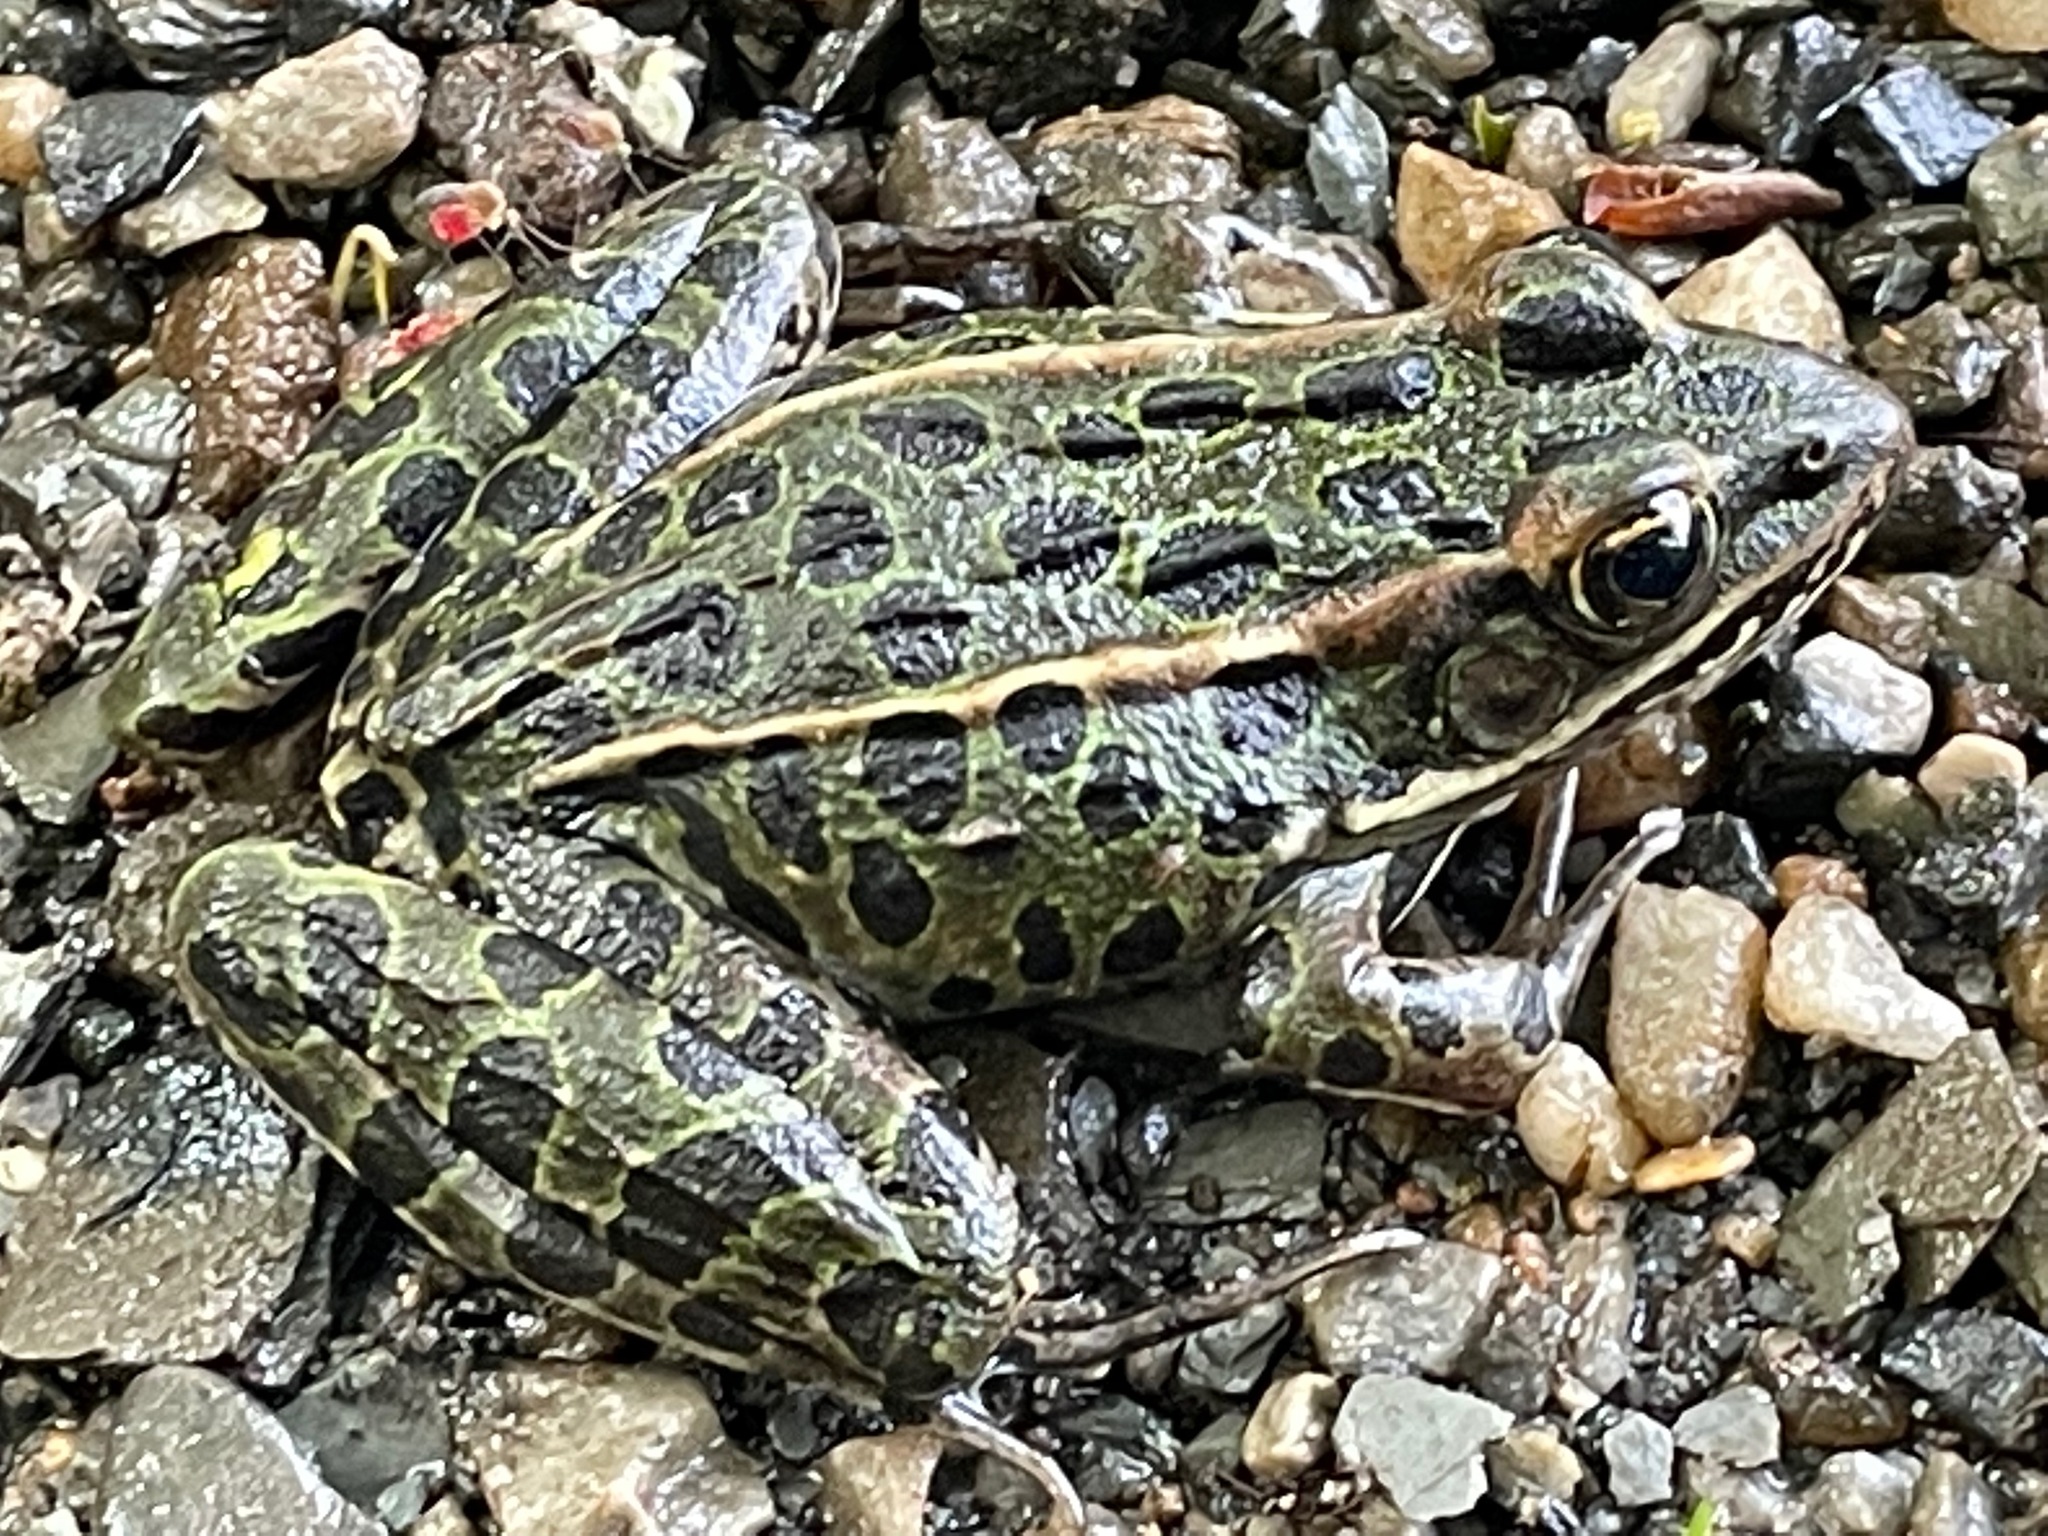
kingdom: Animalia
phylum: Chordata
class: Amphibia
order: Anura
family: Ranidae
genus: Lithobates
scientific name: Lithobates pipiens
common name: Northern leopard frog
